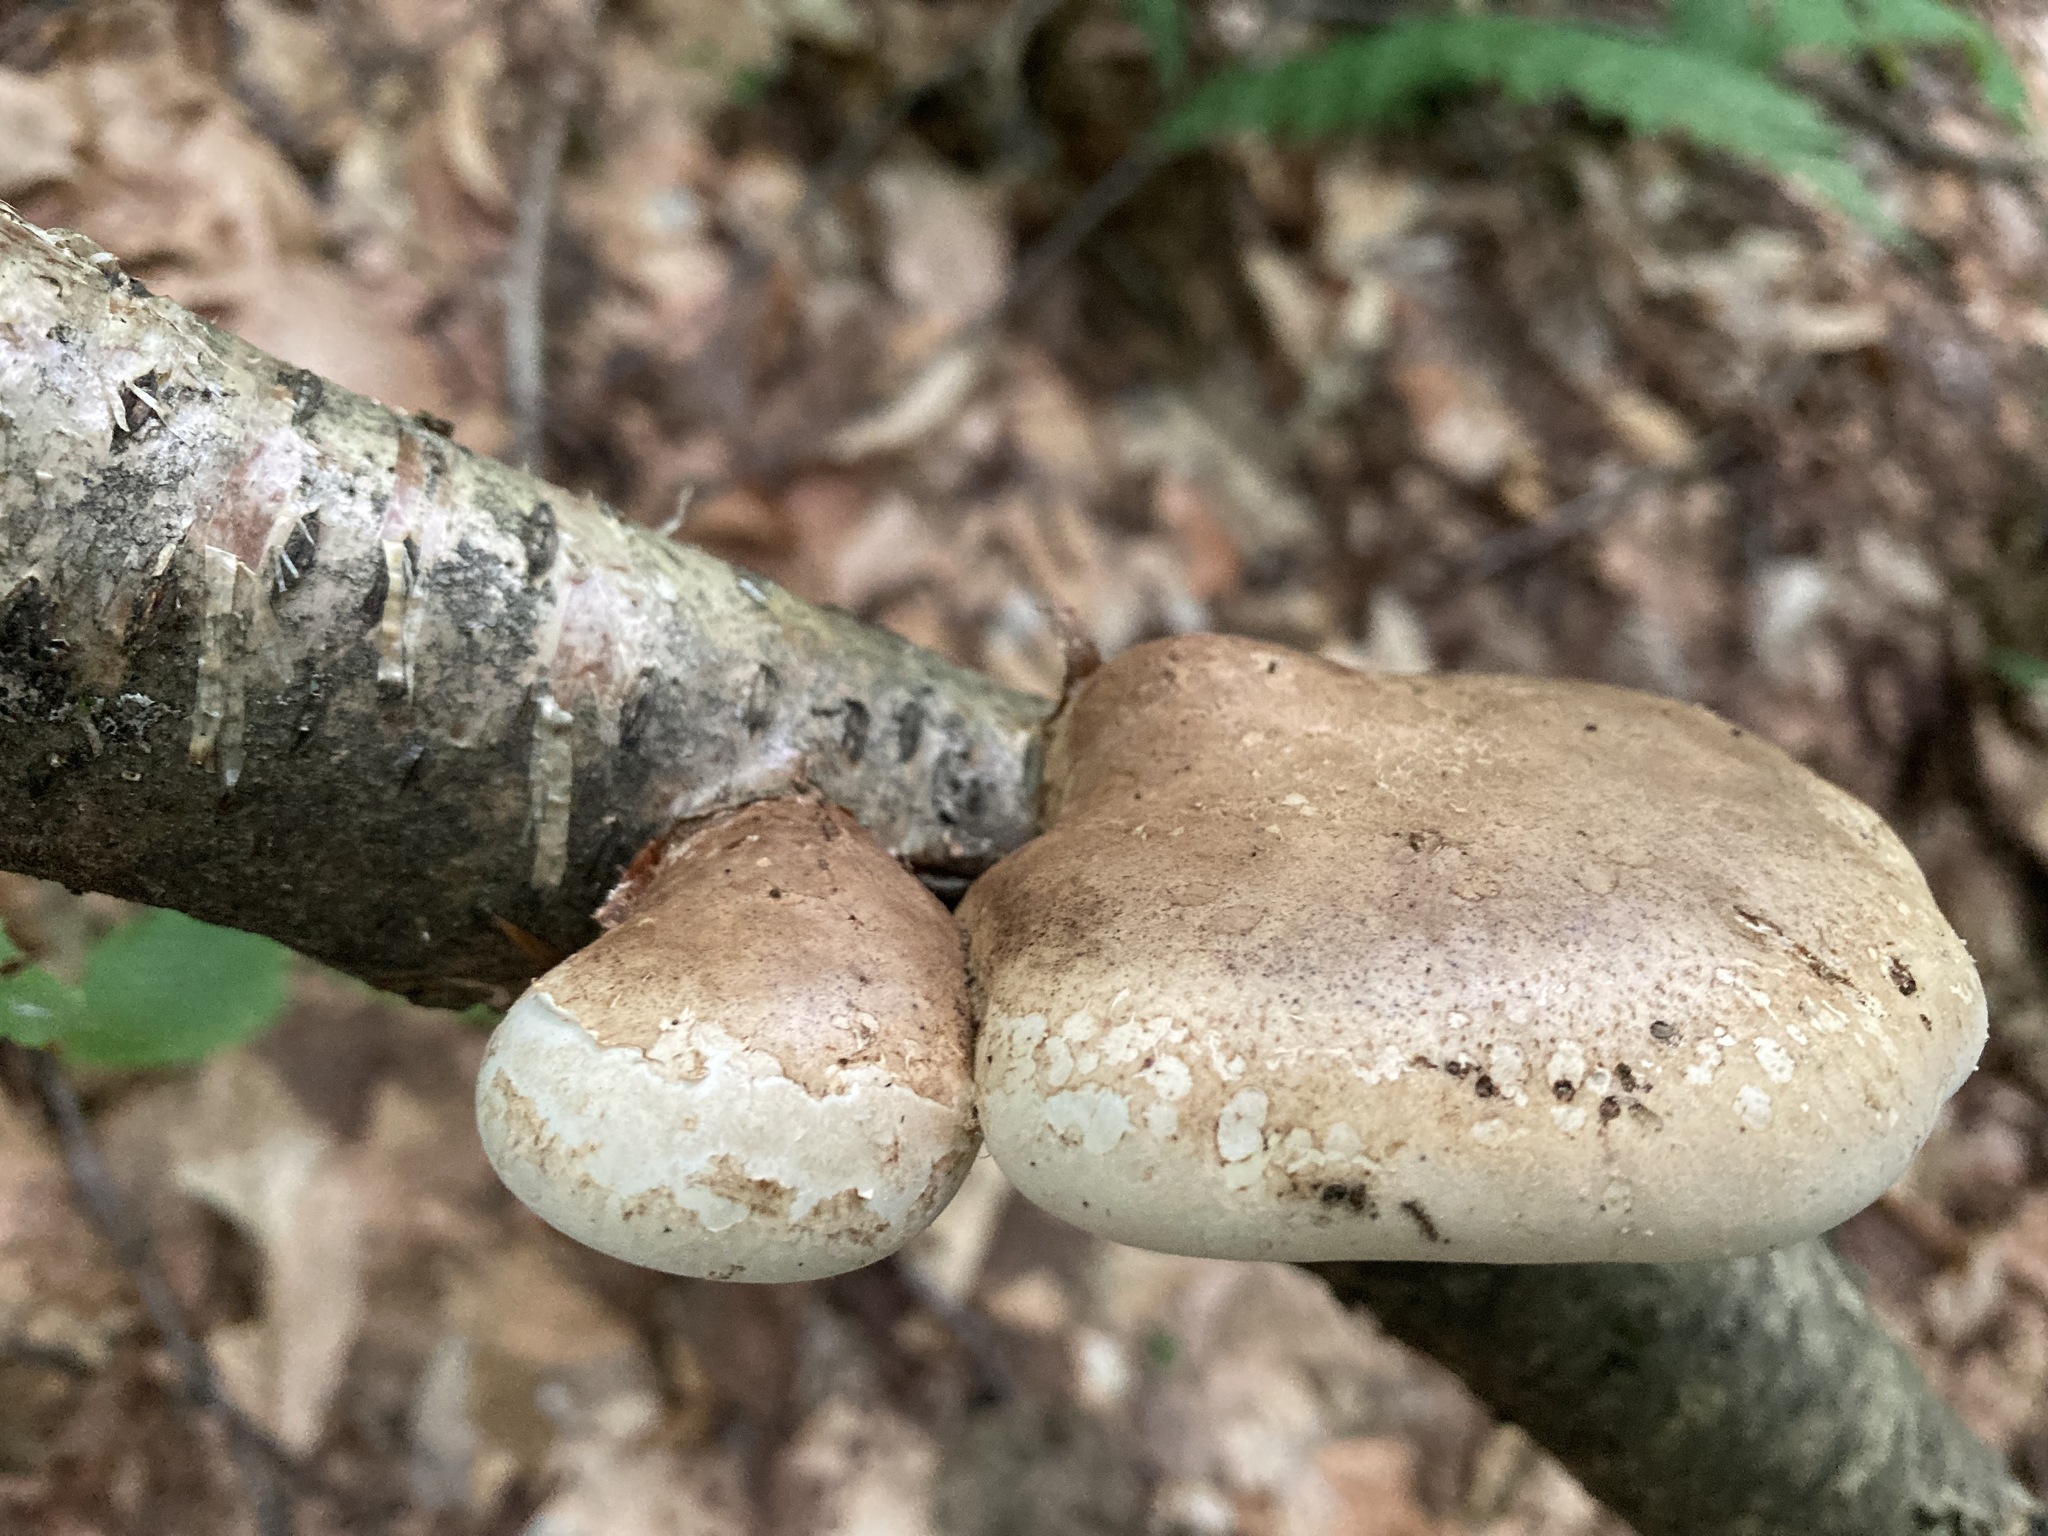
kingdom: Fungi
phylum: Basidiomycota
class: Agaricomycetes
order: Polyporales
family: Fomitopsidaceae
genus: Fomitopsis
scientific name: Fomitopsis betulina
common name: Birch polypore
